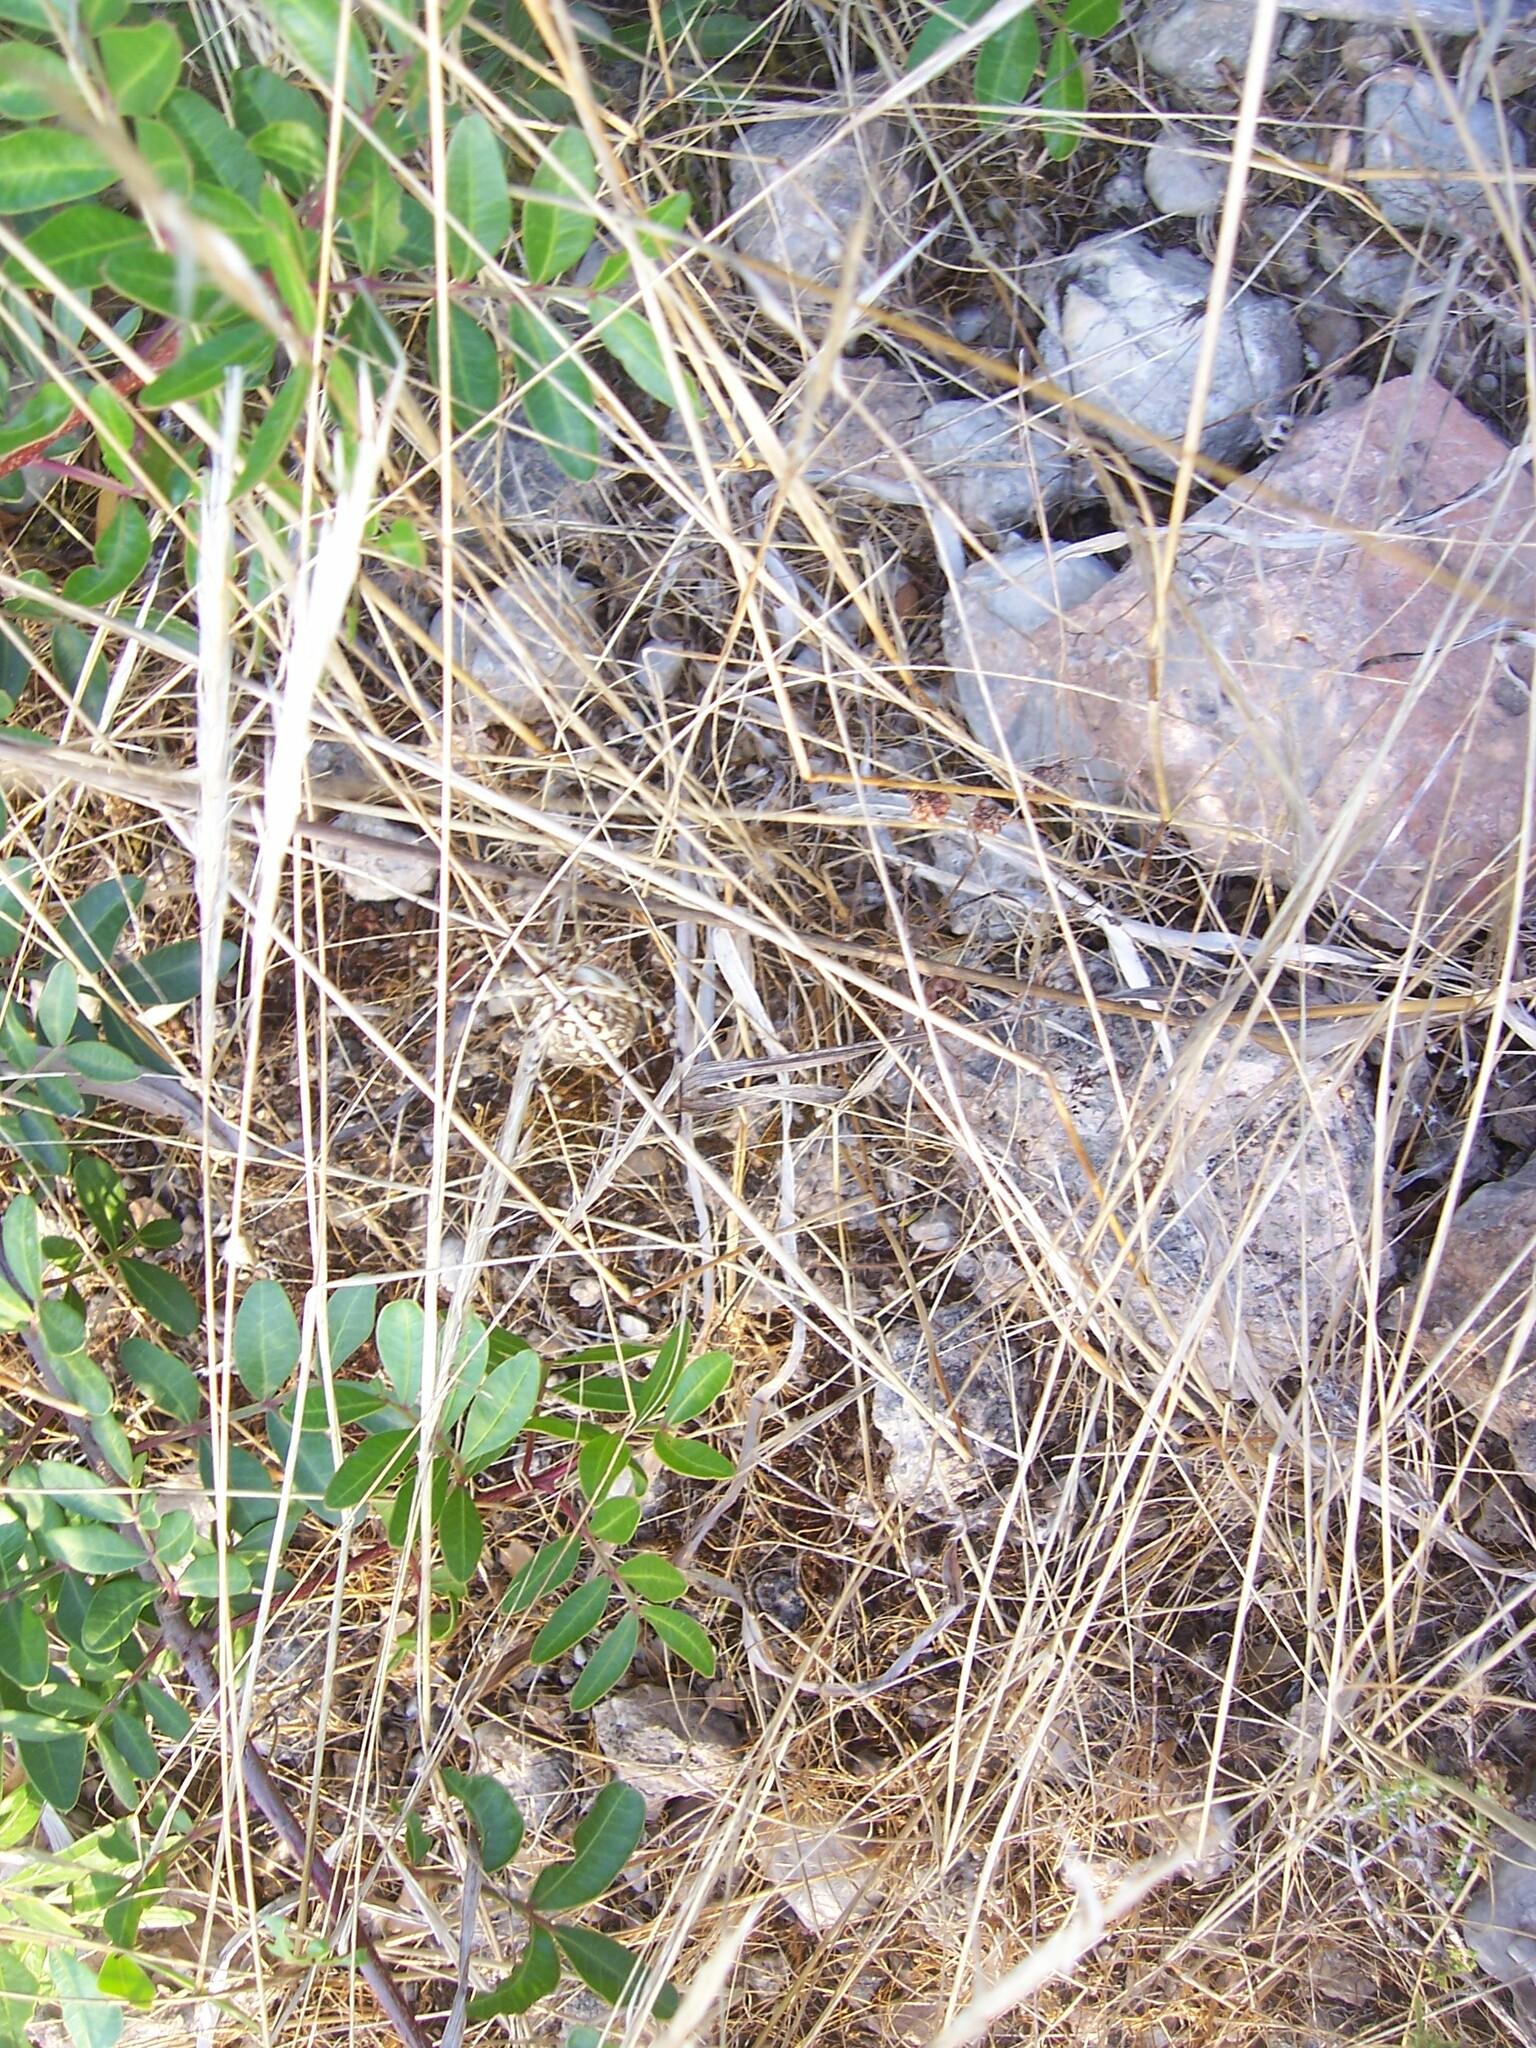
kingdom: Animalia
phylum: Arthropoda
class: Arachnida
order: Araneae
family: Araneidae
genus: Argiope
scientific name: Argiope lobata
